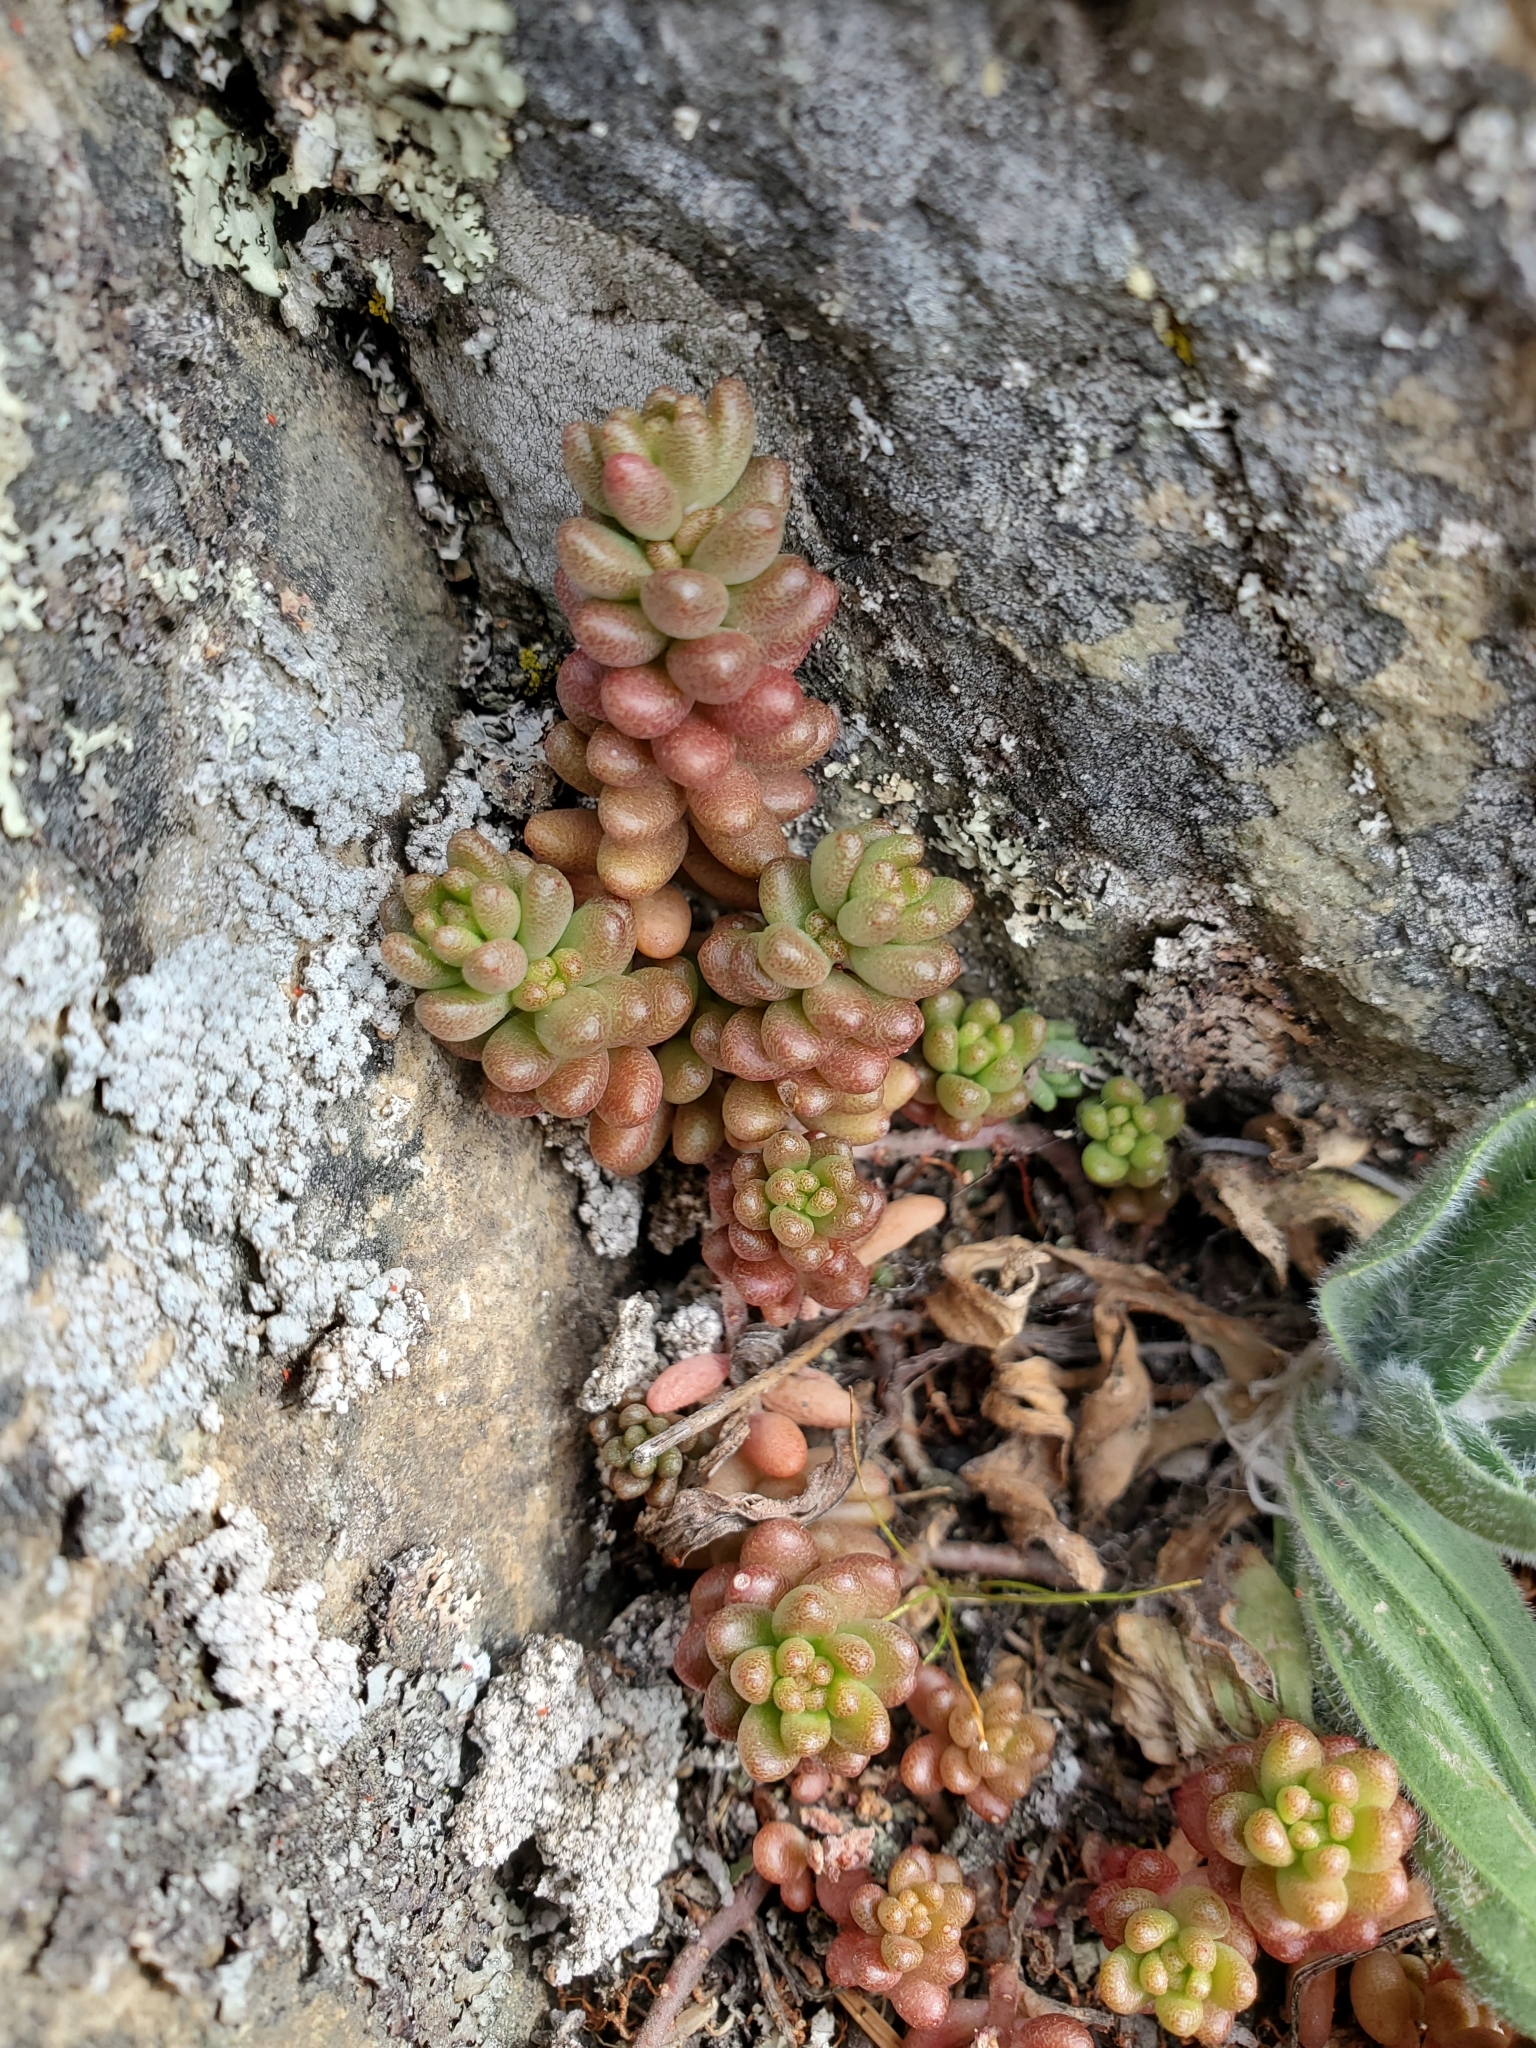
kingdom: Plantae
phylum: Tracheophyta
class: Magnoliopsida
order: Saxifragales
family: Crassulaceae
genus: Sedum
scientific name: Sedum album
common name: White stonecrop
